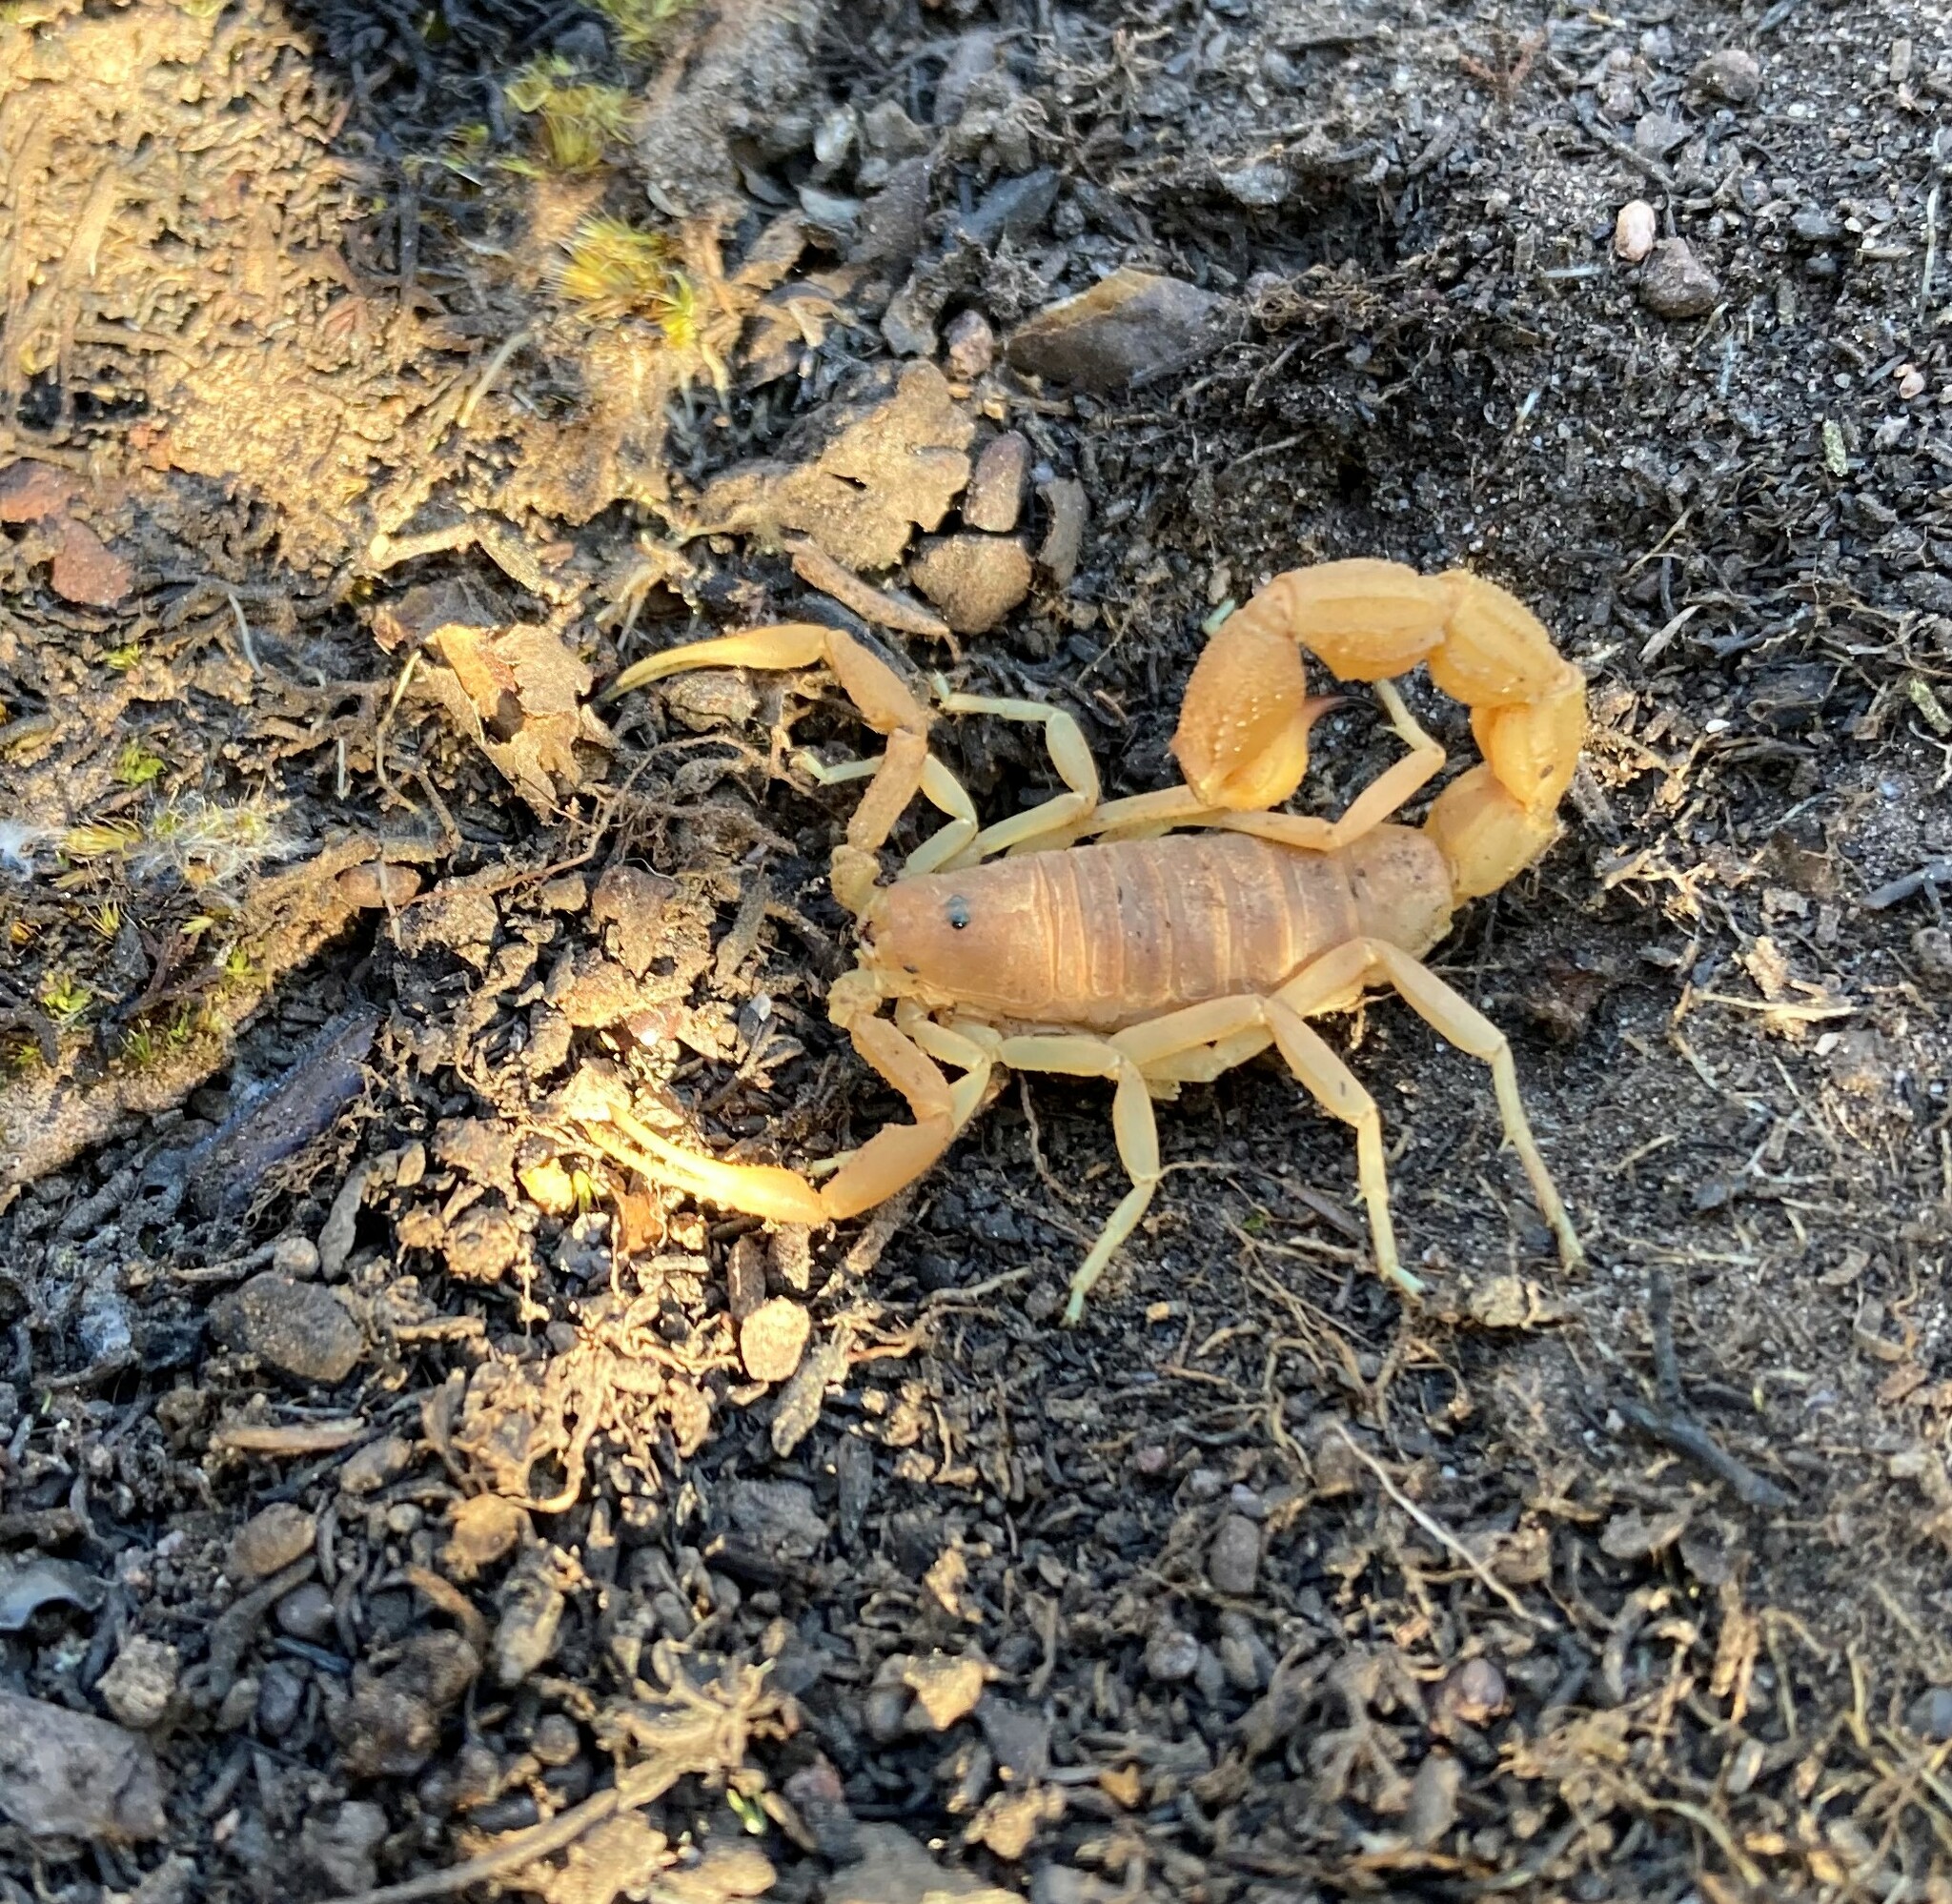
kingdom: Animalia
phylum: Arthropoda
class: Arachnida
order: Scorpiones
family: Buthidae
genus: Parabuthus
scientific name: Parabuthus planicauda
